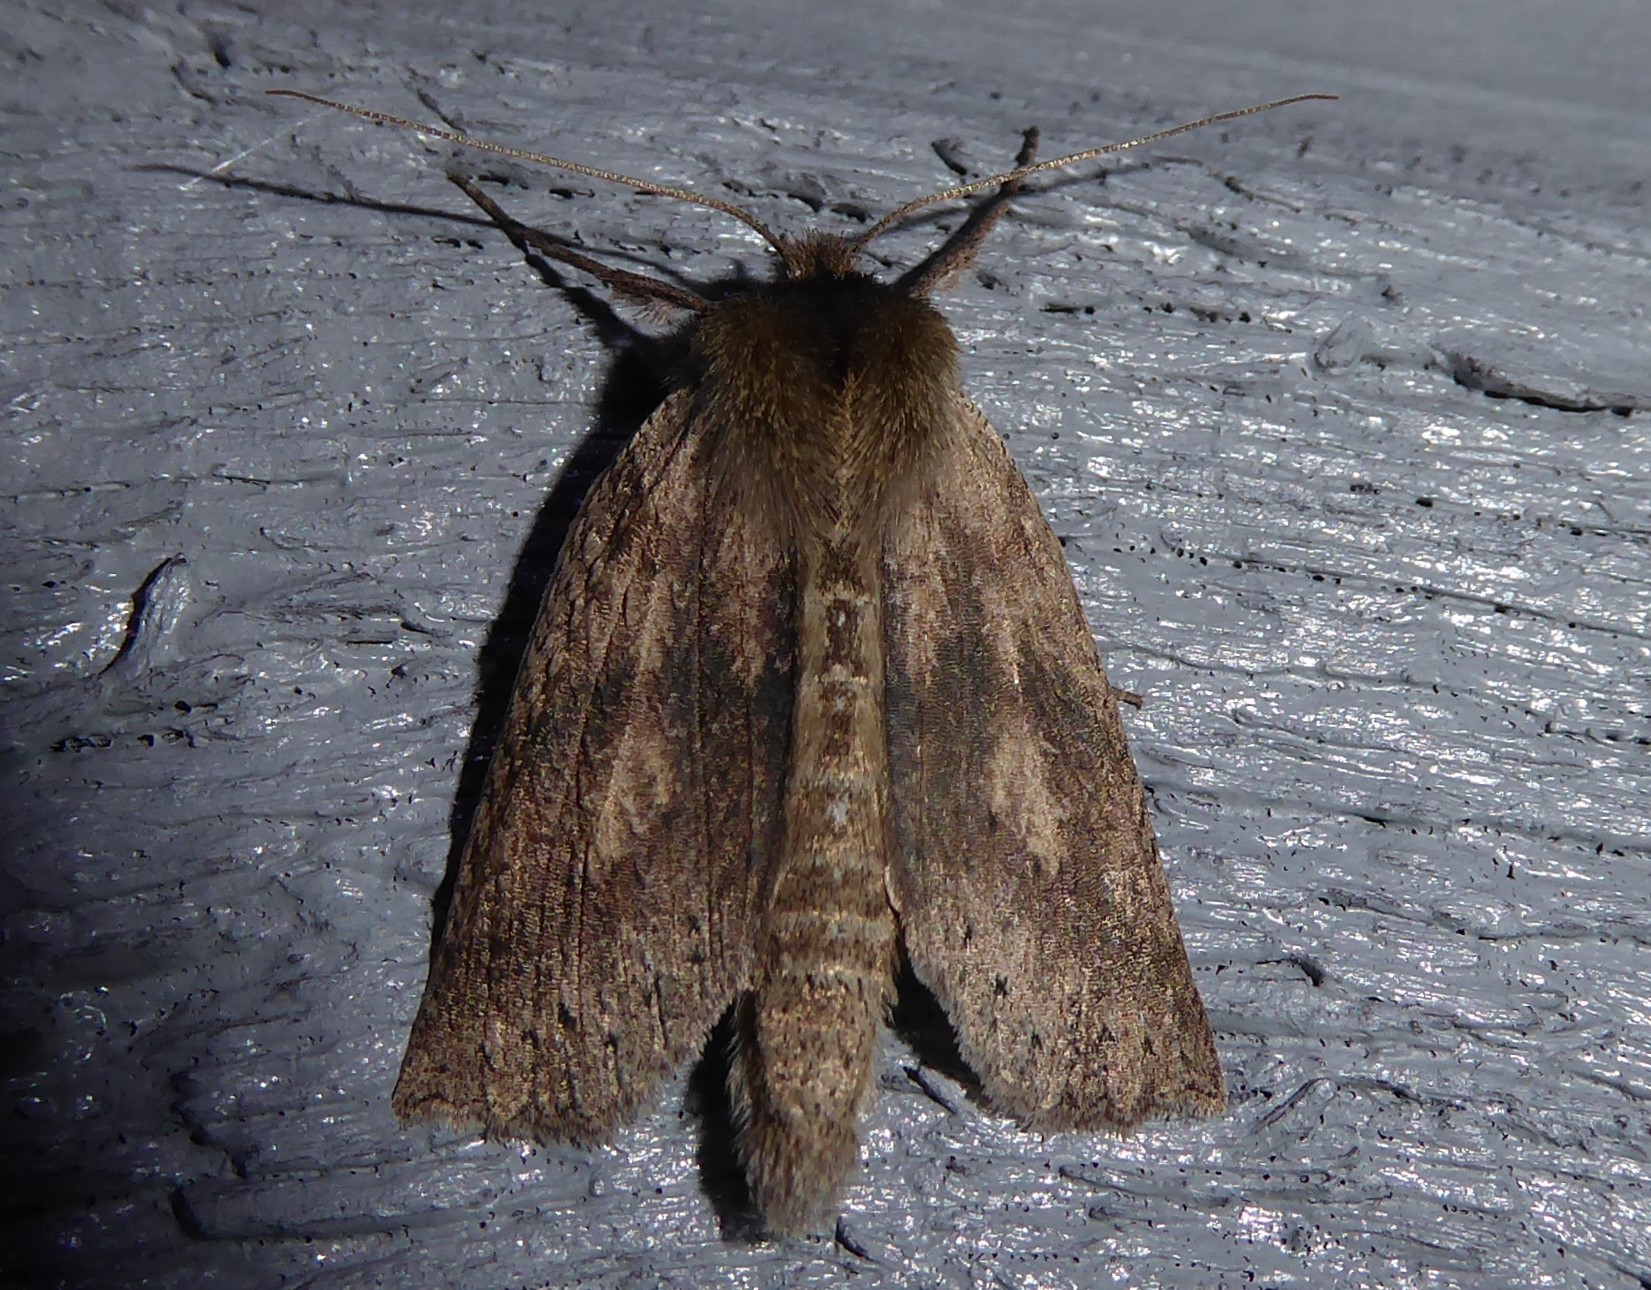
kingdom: Animalia
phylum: Arthropoda
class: Insecta
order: Lepidoptera
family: Geometridae
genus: Declana
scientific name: Declana leptomera
